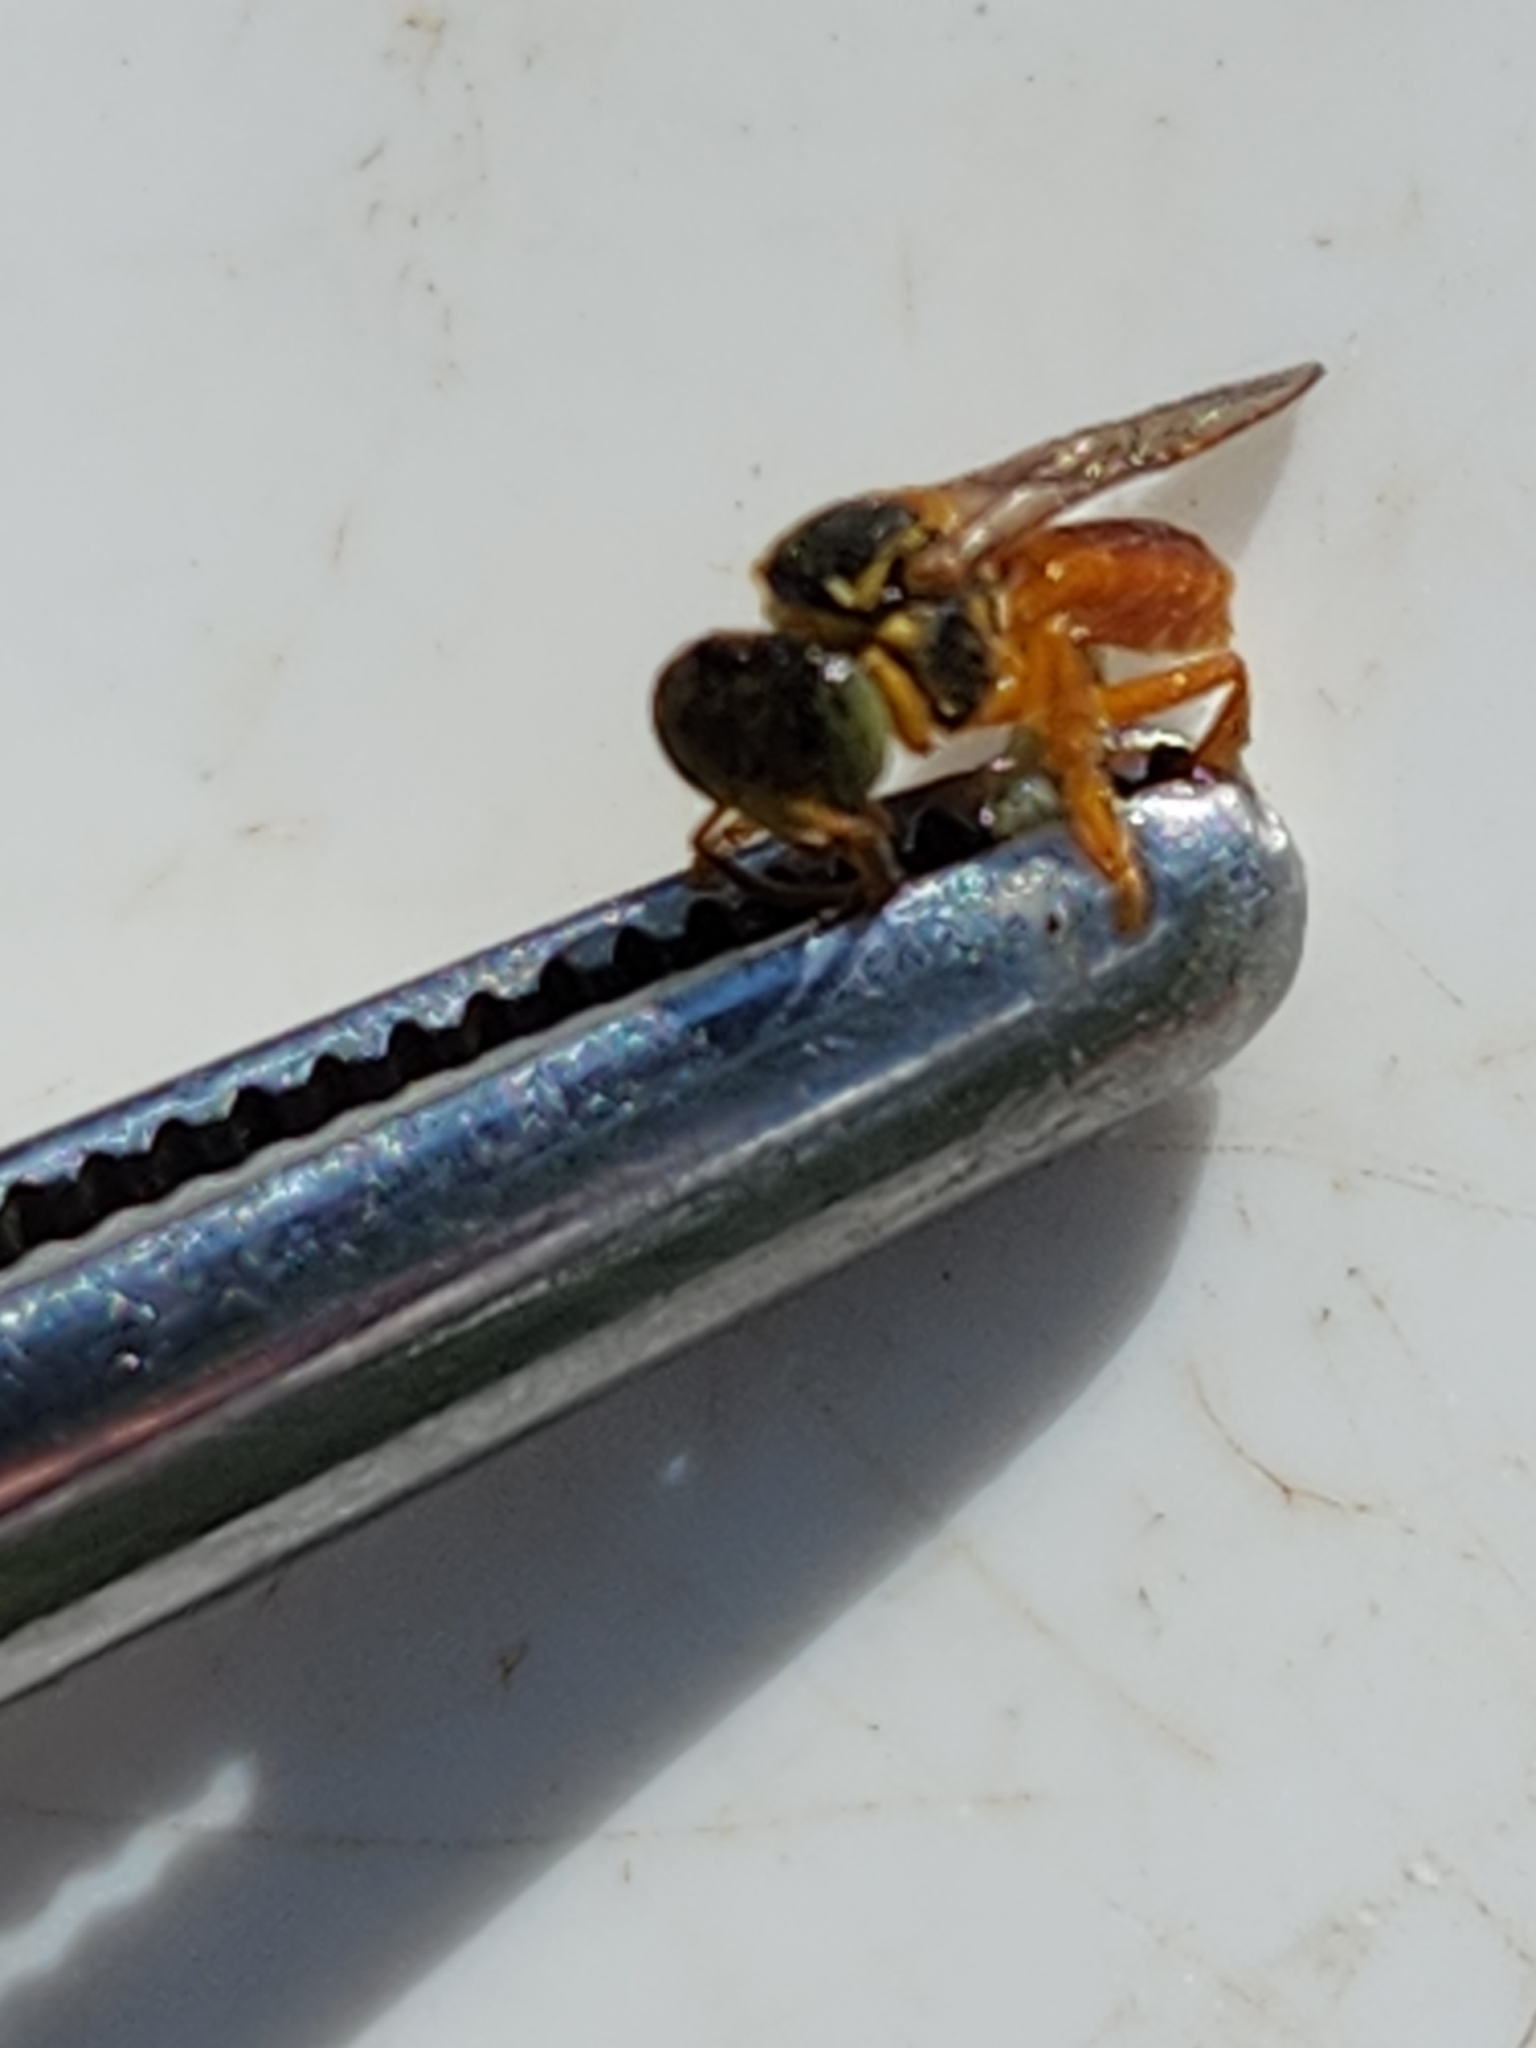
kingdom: Animalia
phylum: Arthropoda
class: Insecta
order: Hymenoptera
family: Apidae
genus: Tetragonisca
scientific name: Tetragonisca angustula
